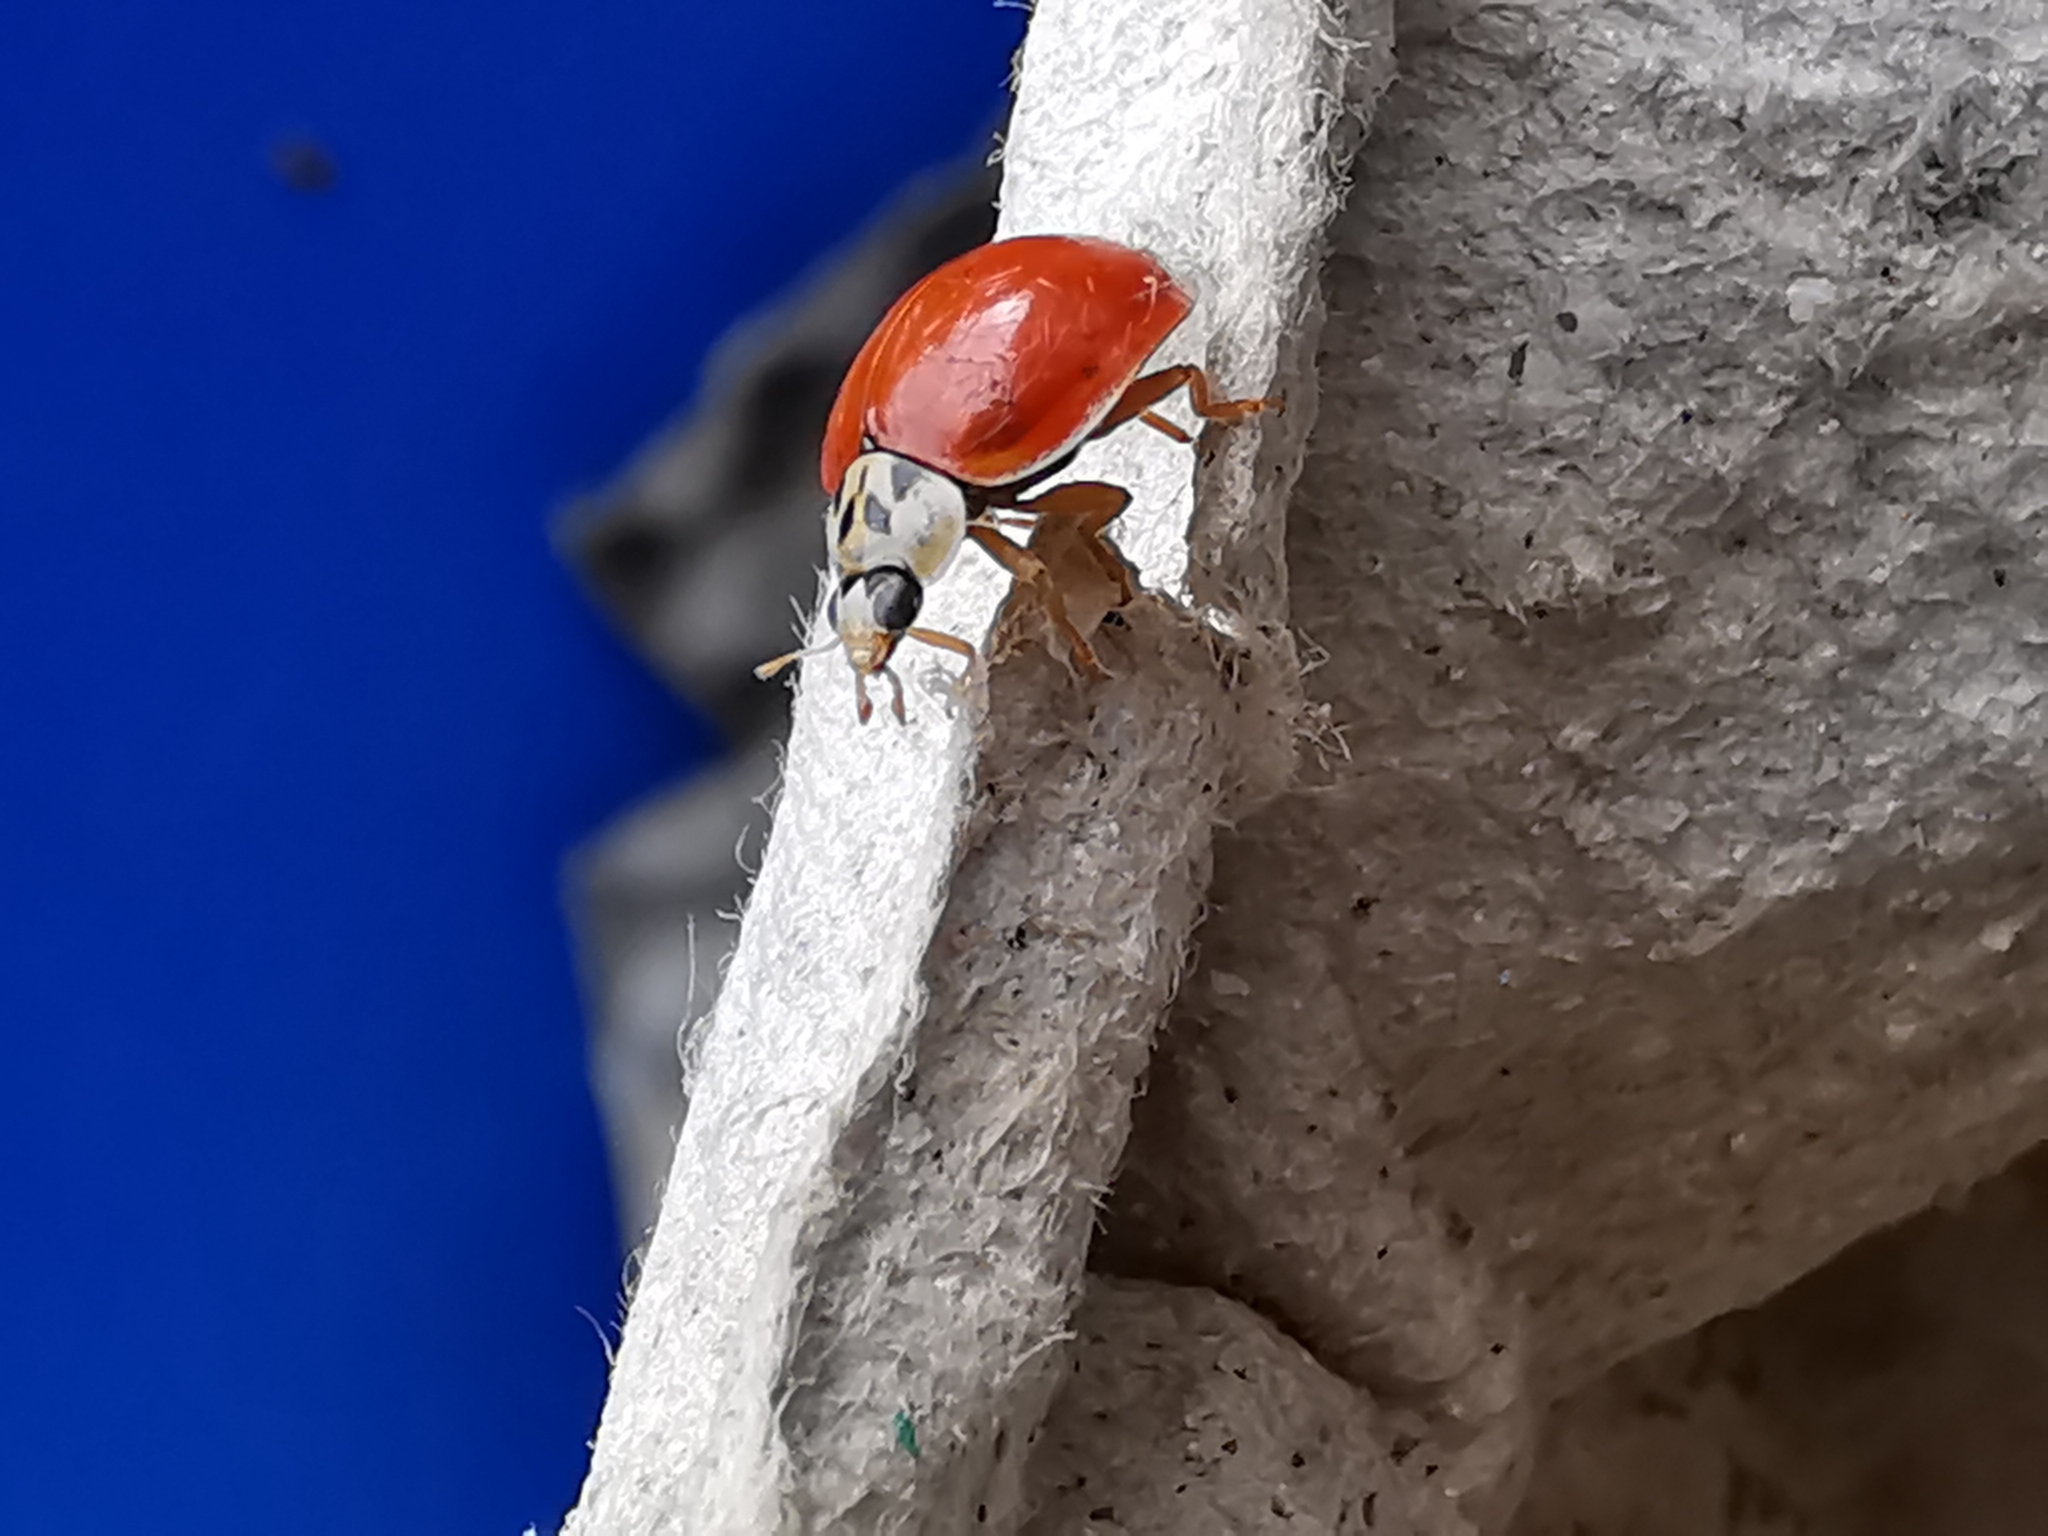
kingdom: Animalia
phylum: Arthropoda
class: Insecta
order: Coleoptera
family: Coccinellidae
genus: Harmonia
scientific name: Harmonia axyridis
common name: Harlequin ladybird
